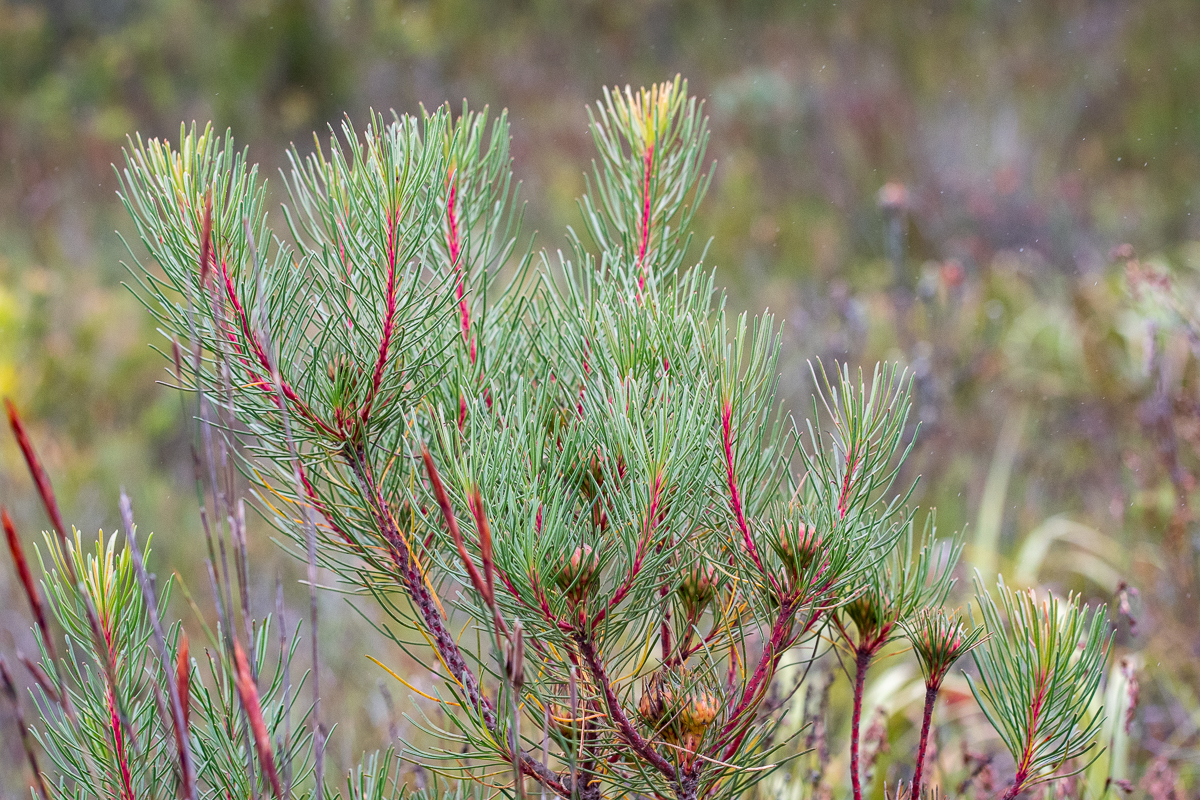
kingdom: Plantae
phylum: Tracheophyta
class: Magnoliopsida
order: Proteales
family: Proteaceae
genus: Aulax
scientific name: Aulax cancellata
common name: Channel-leaf featherbush
